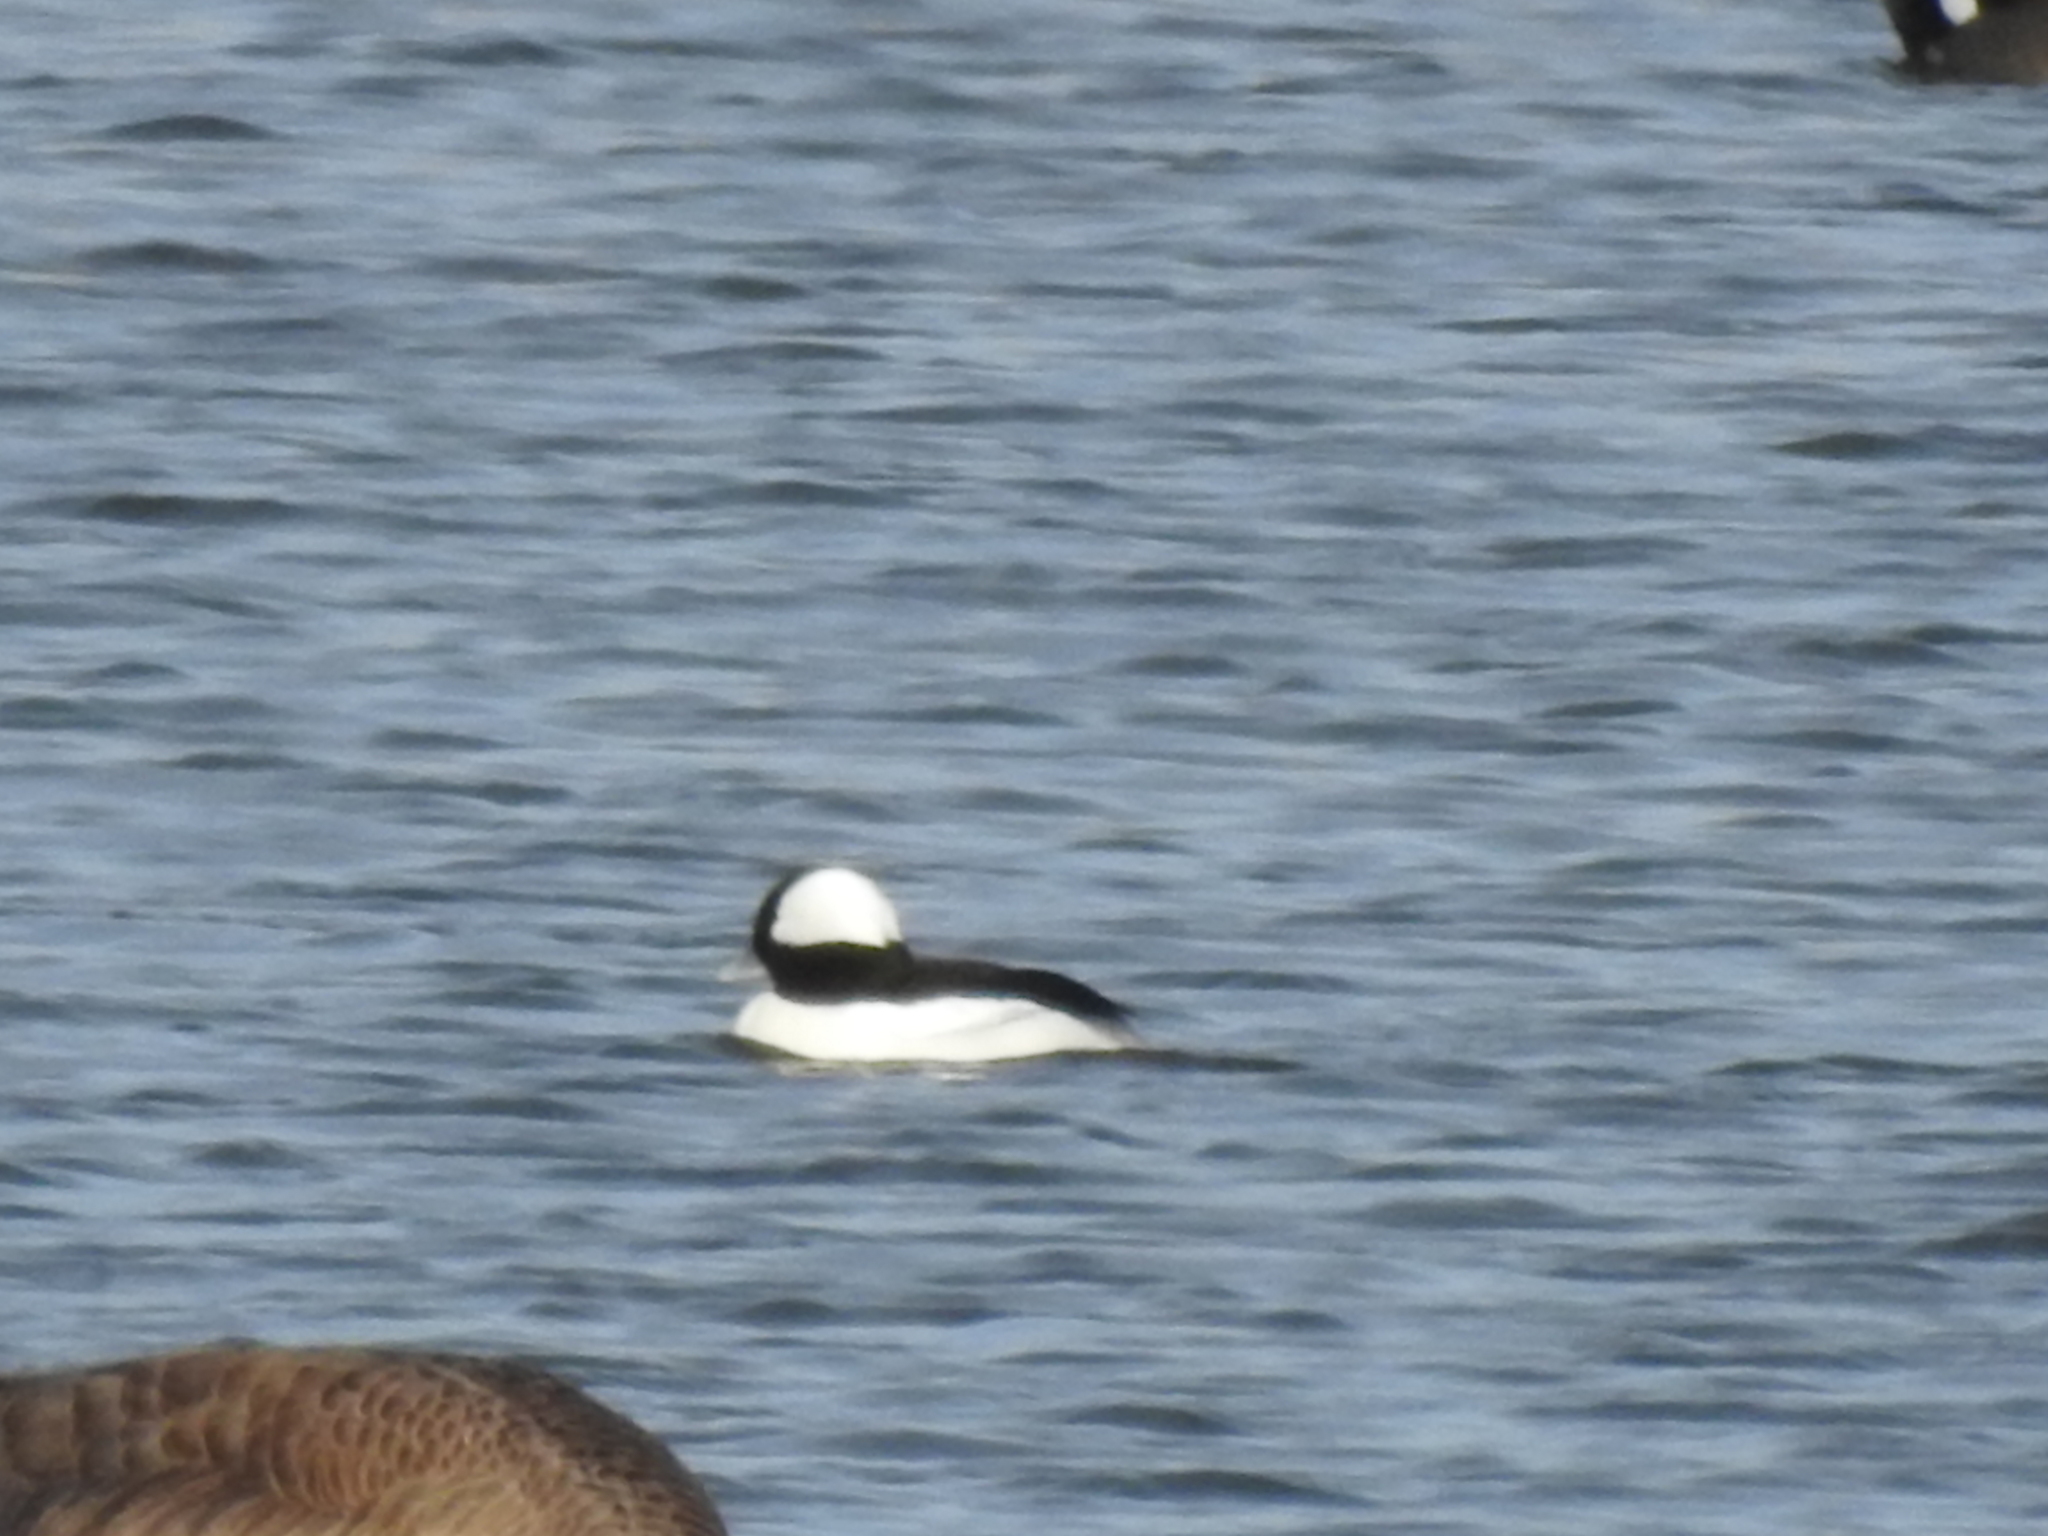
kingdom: Animalia
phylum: Chordata
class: Aves
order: Anseriformes
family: Anatidae
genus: Bucephala
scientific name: Bucephala albeola
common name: Bufflehead
